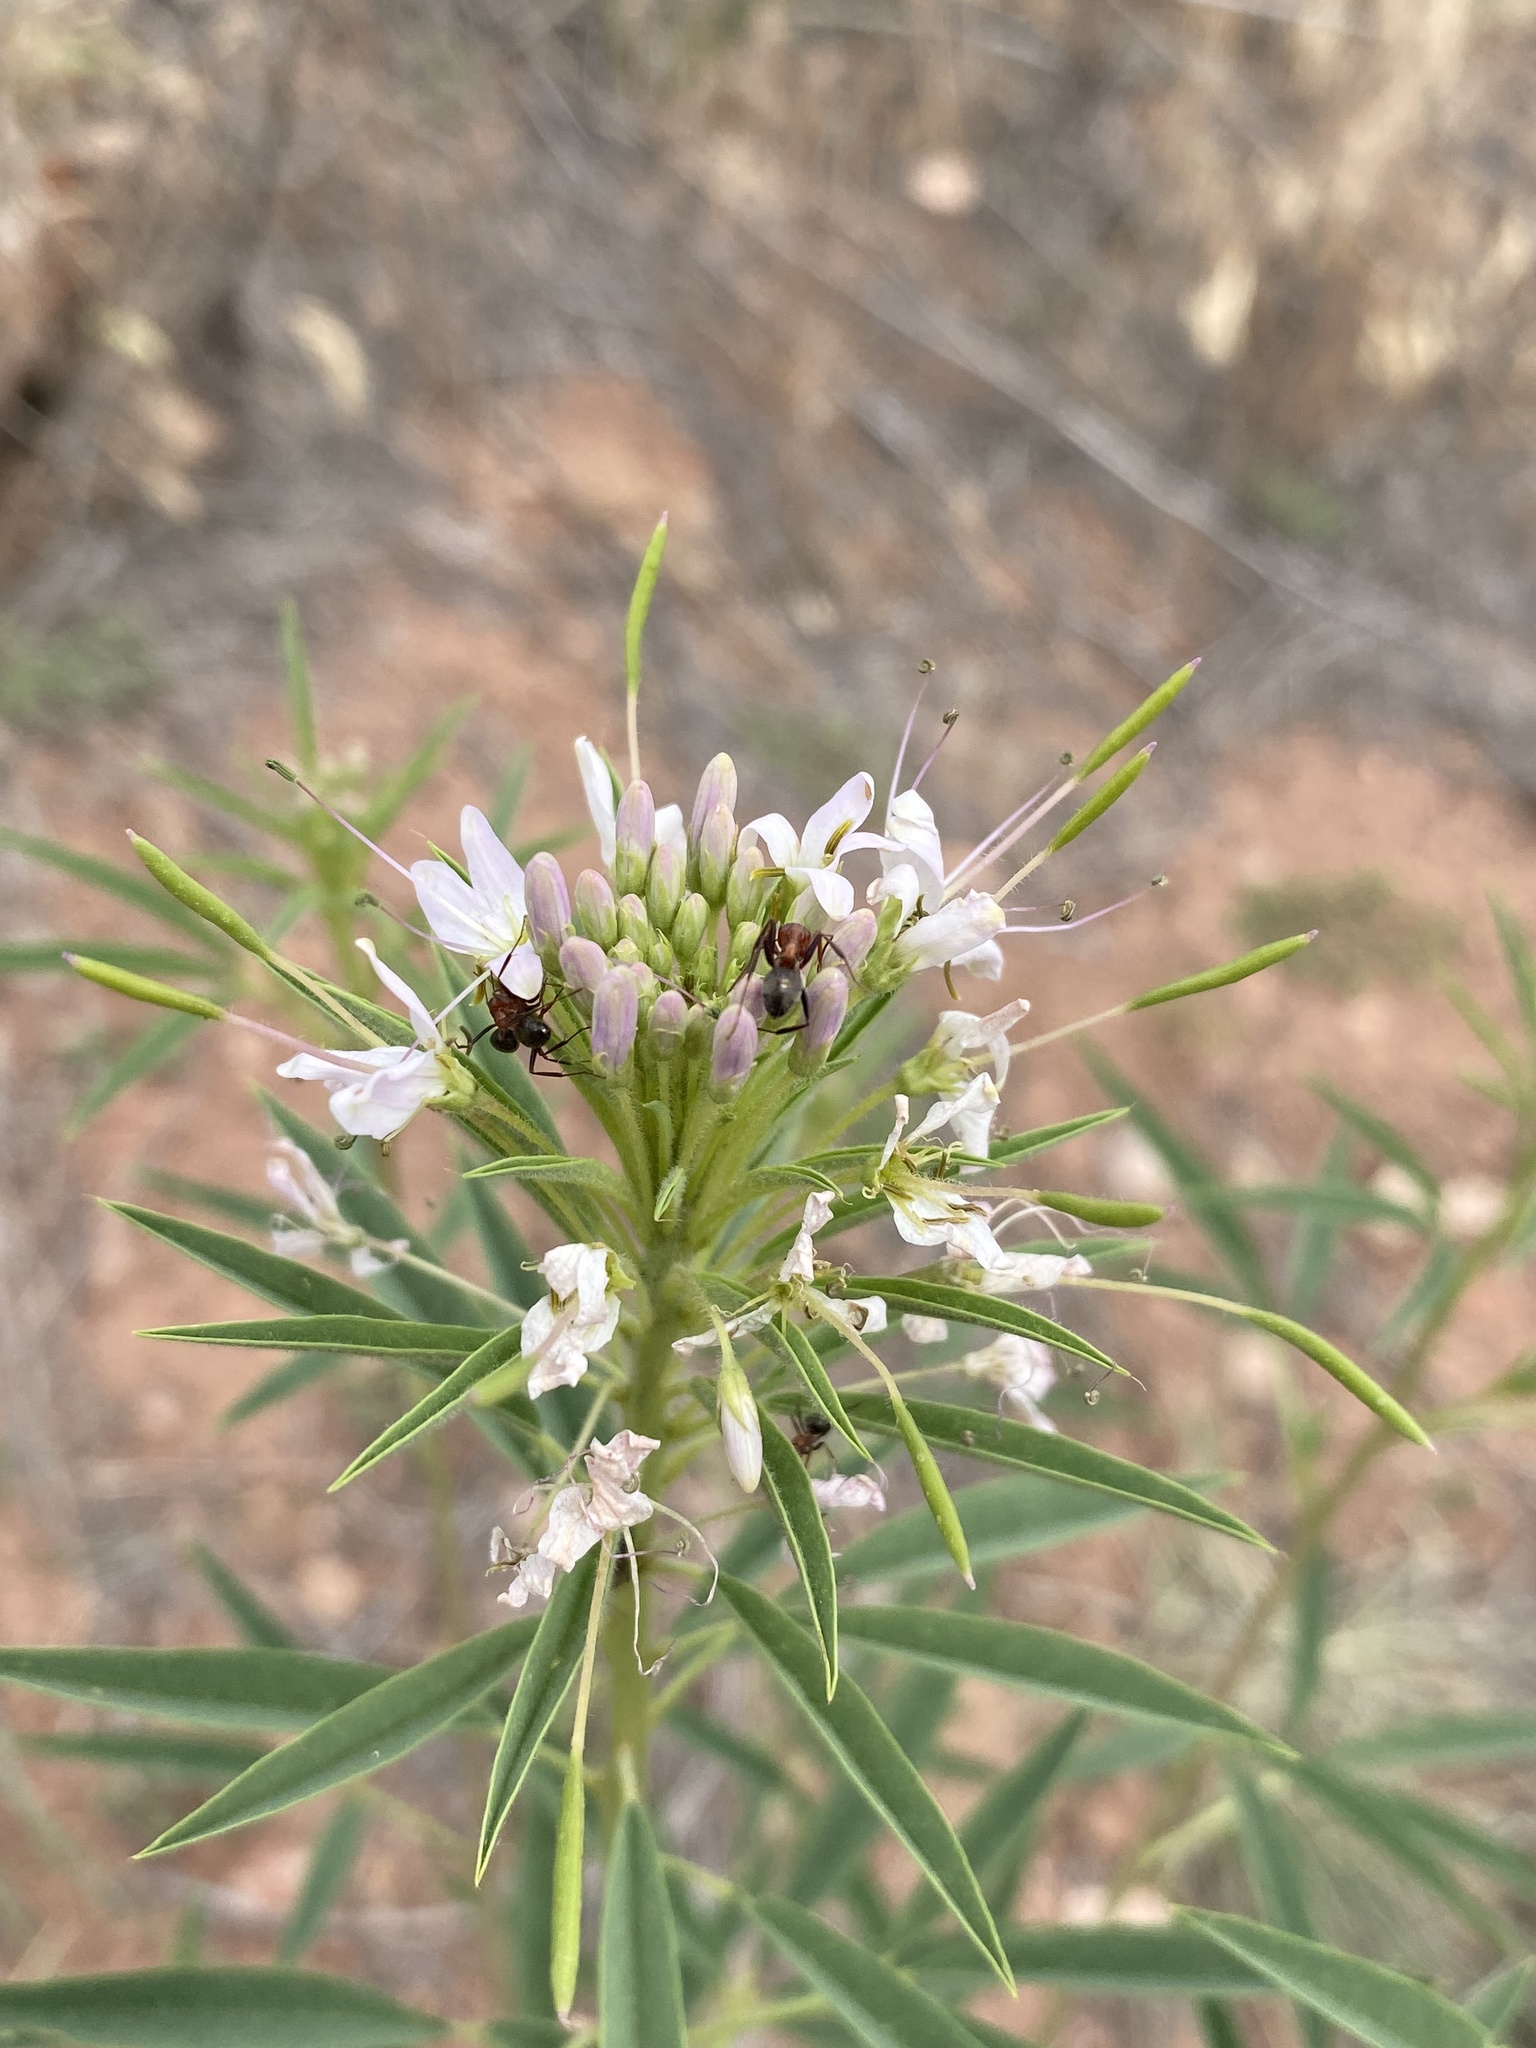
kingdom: Plantae
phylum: Tracheophyta
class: Magnoliopsida
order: Brassicales
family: Cleomaceae
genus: Cleomella
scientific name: Cleomella serrulata
